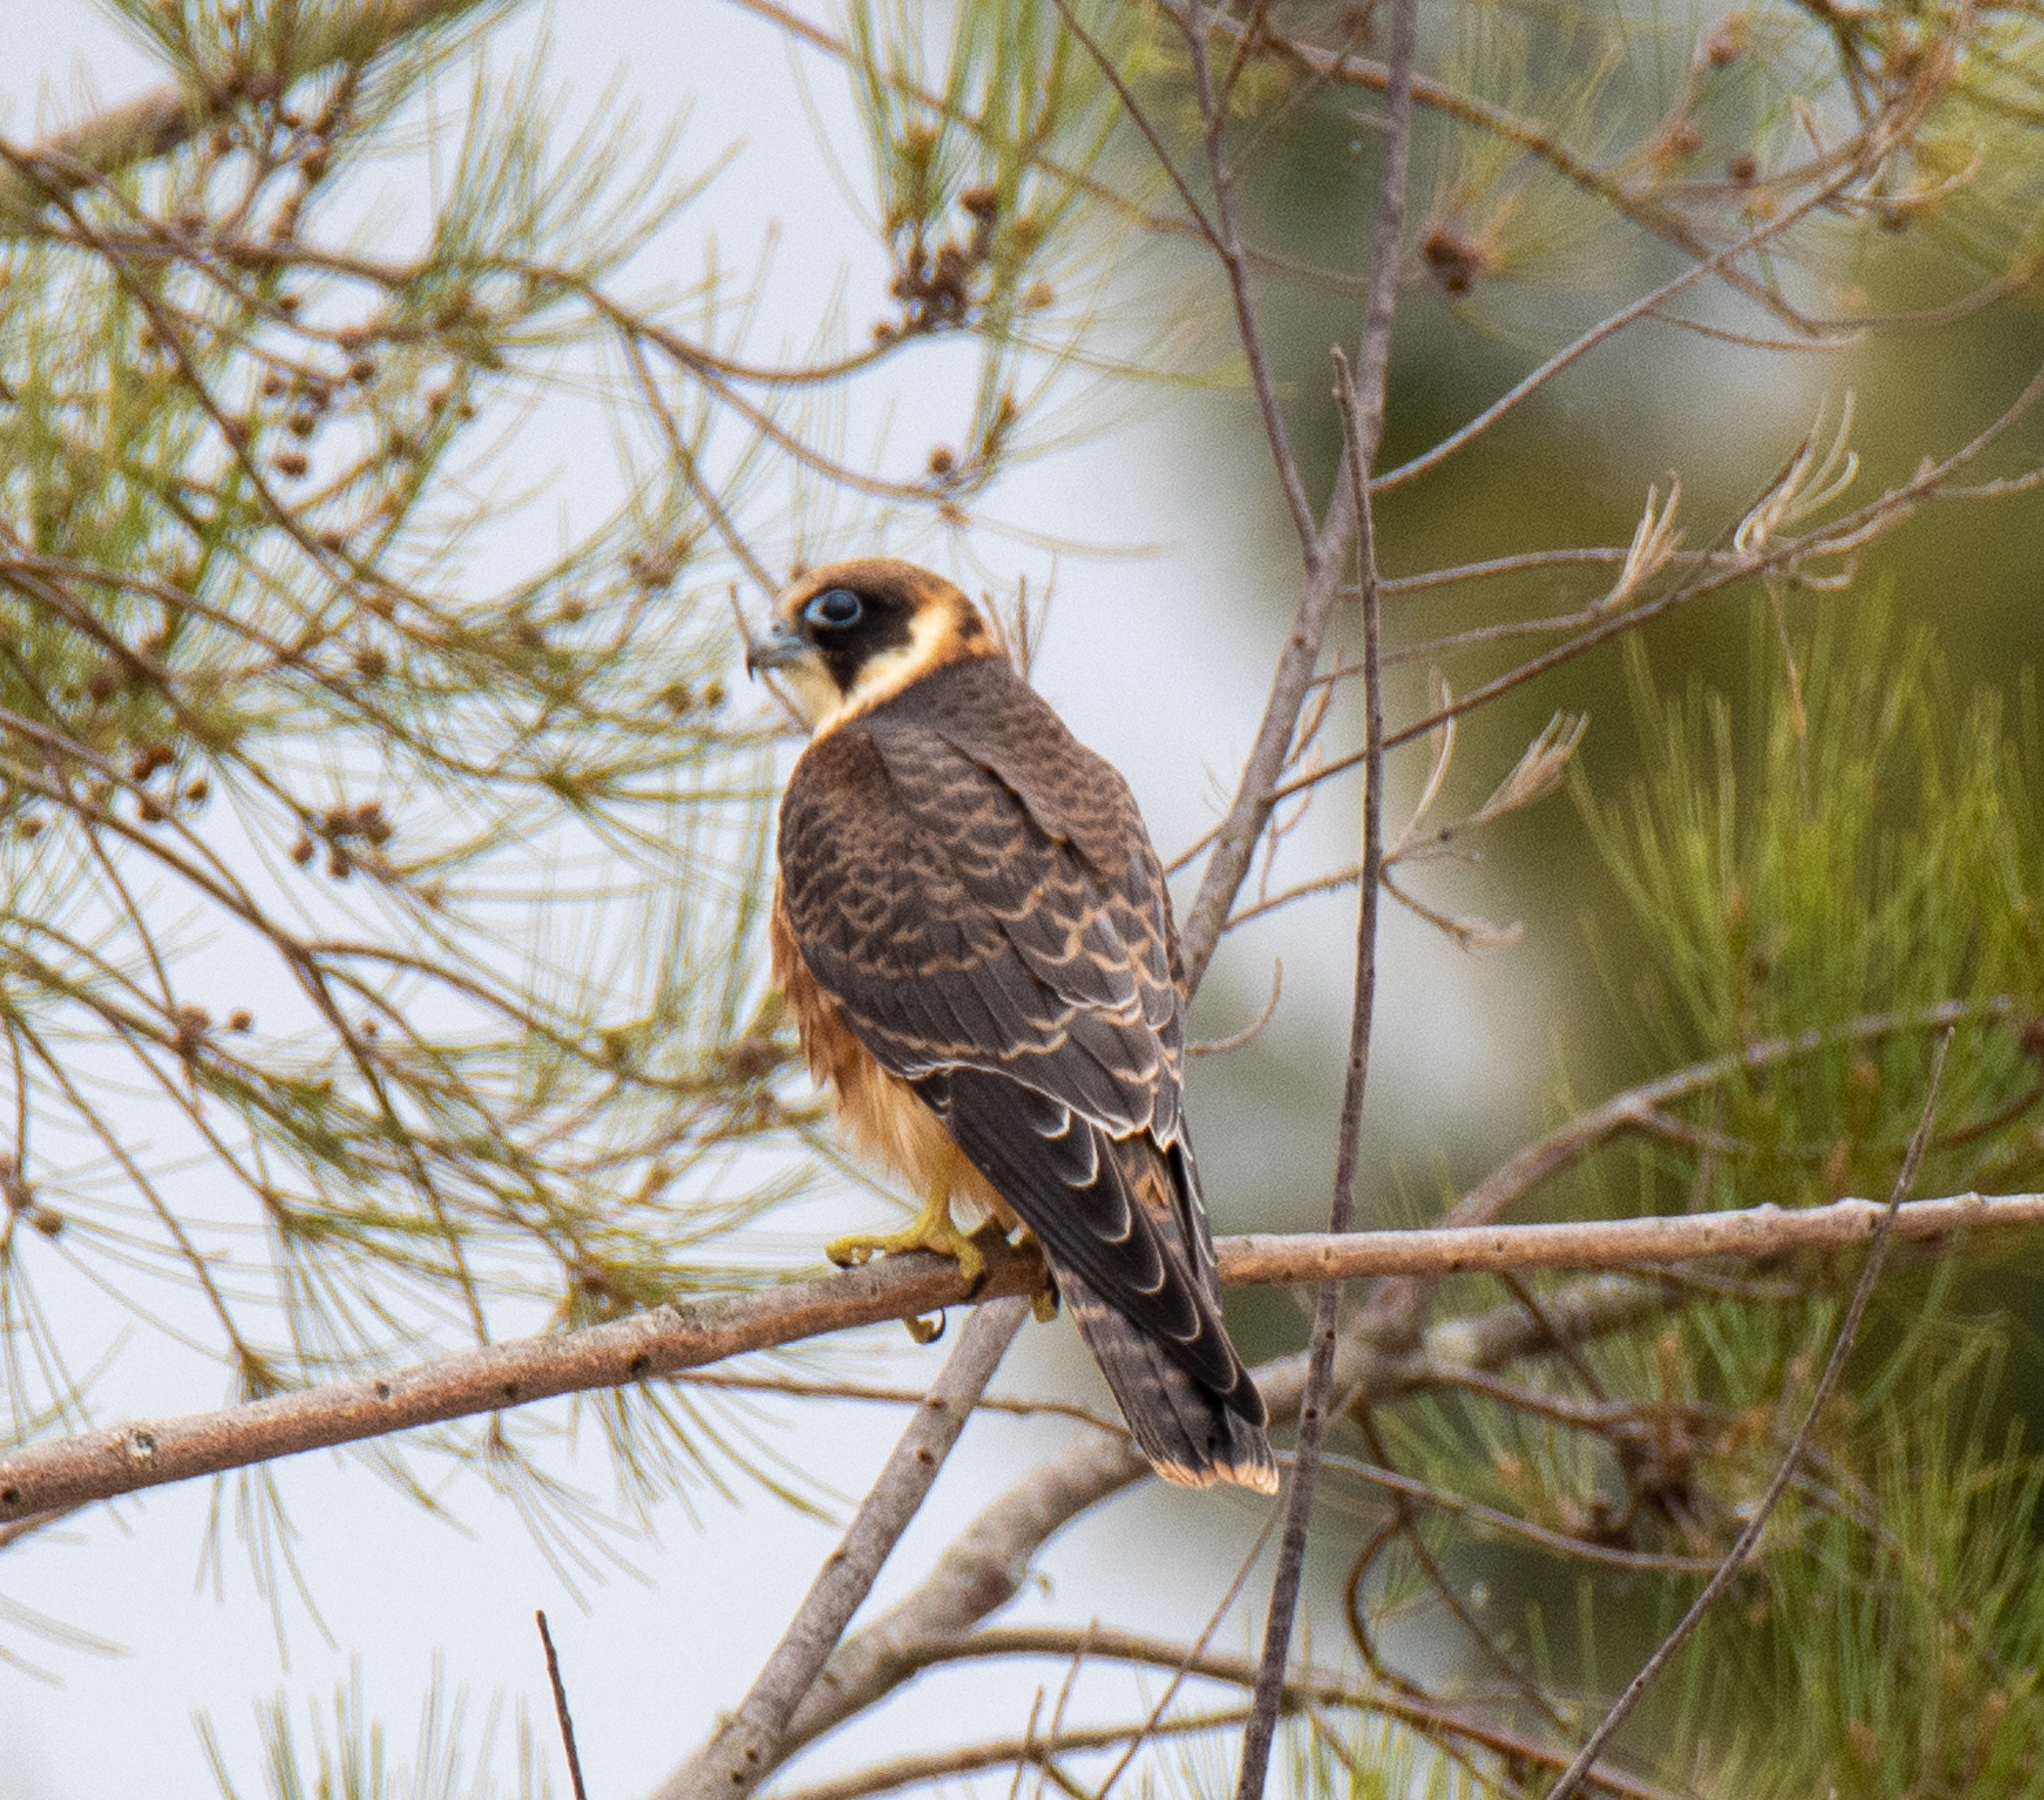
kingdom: Animalia
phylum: Chordata
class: Aves
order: Falconiformes
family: Falconidae
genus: Falco
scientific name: Falco longipennis
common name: Australian hobby
